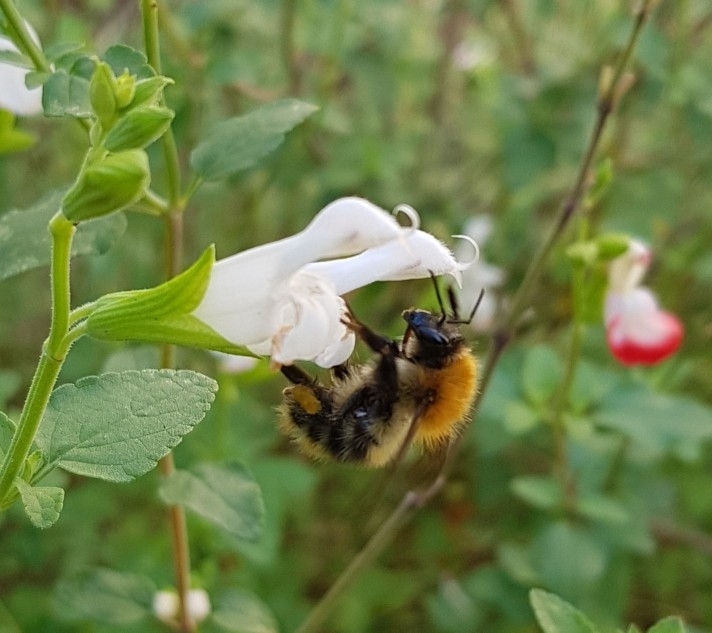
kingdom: Animalia
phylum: Arthropoda
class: Insecta
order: Hymenoptera
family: Apidae
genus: Bombus
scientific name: Bombus pascuorum
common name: Common carder bee
